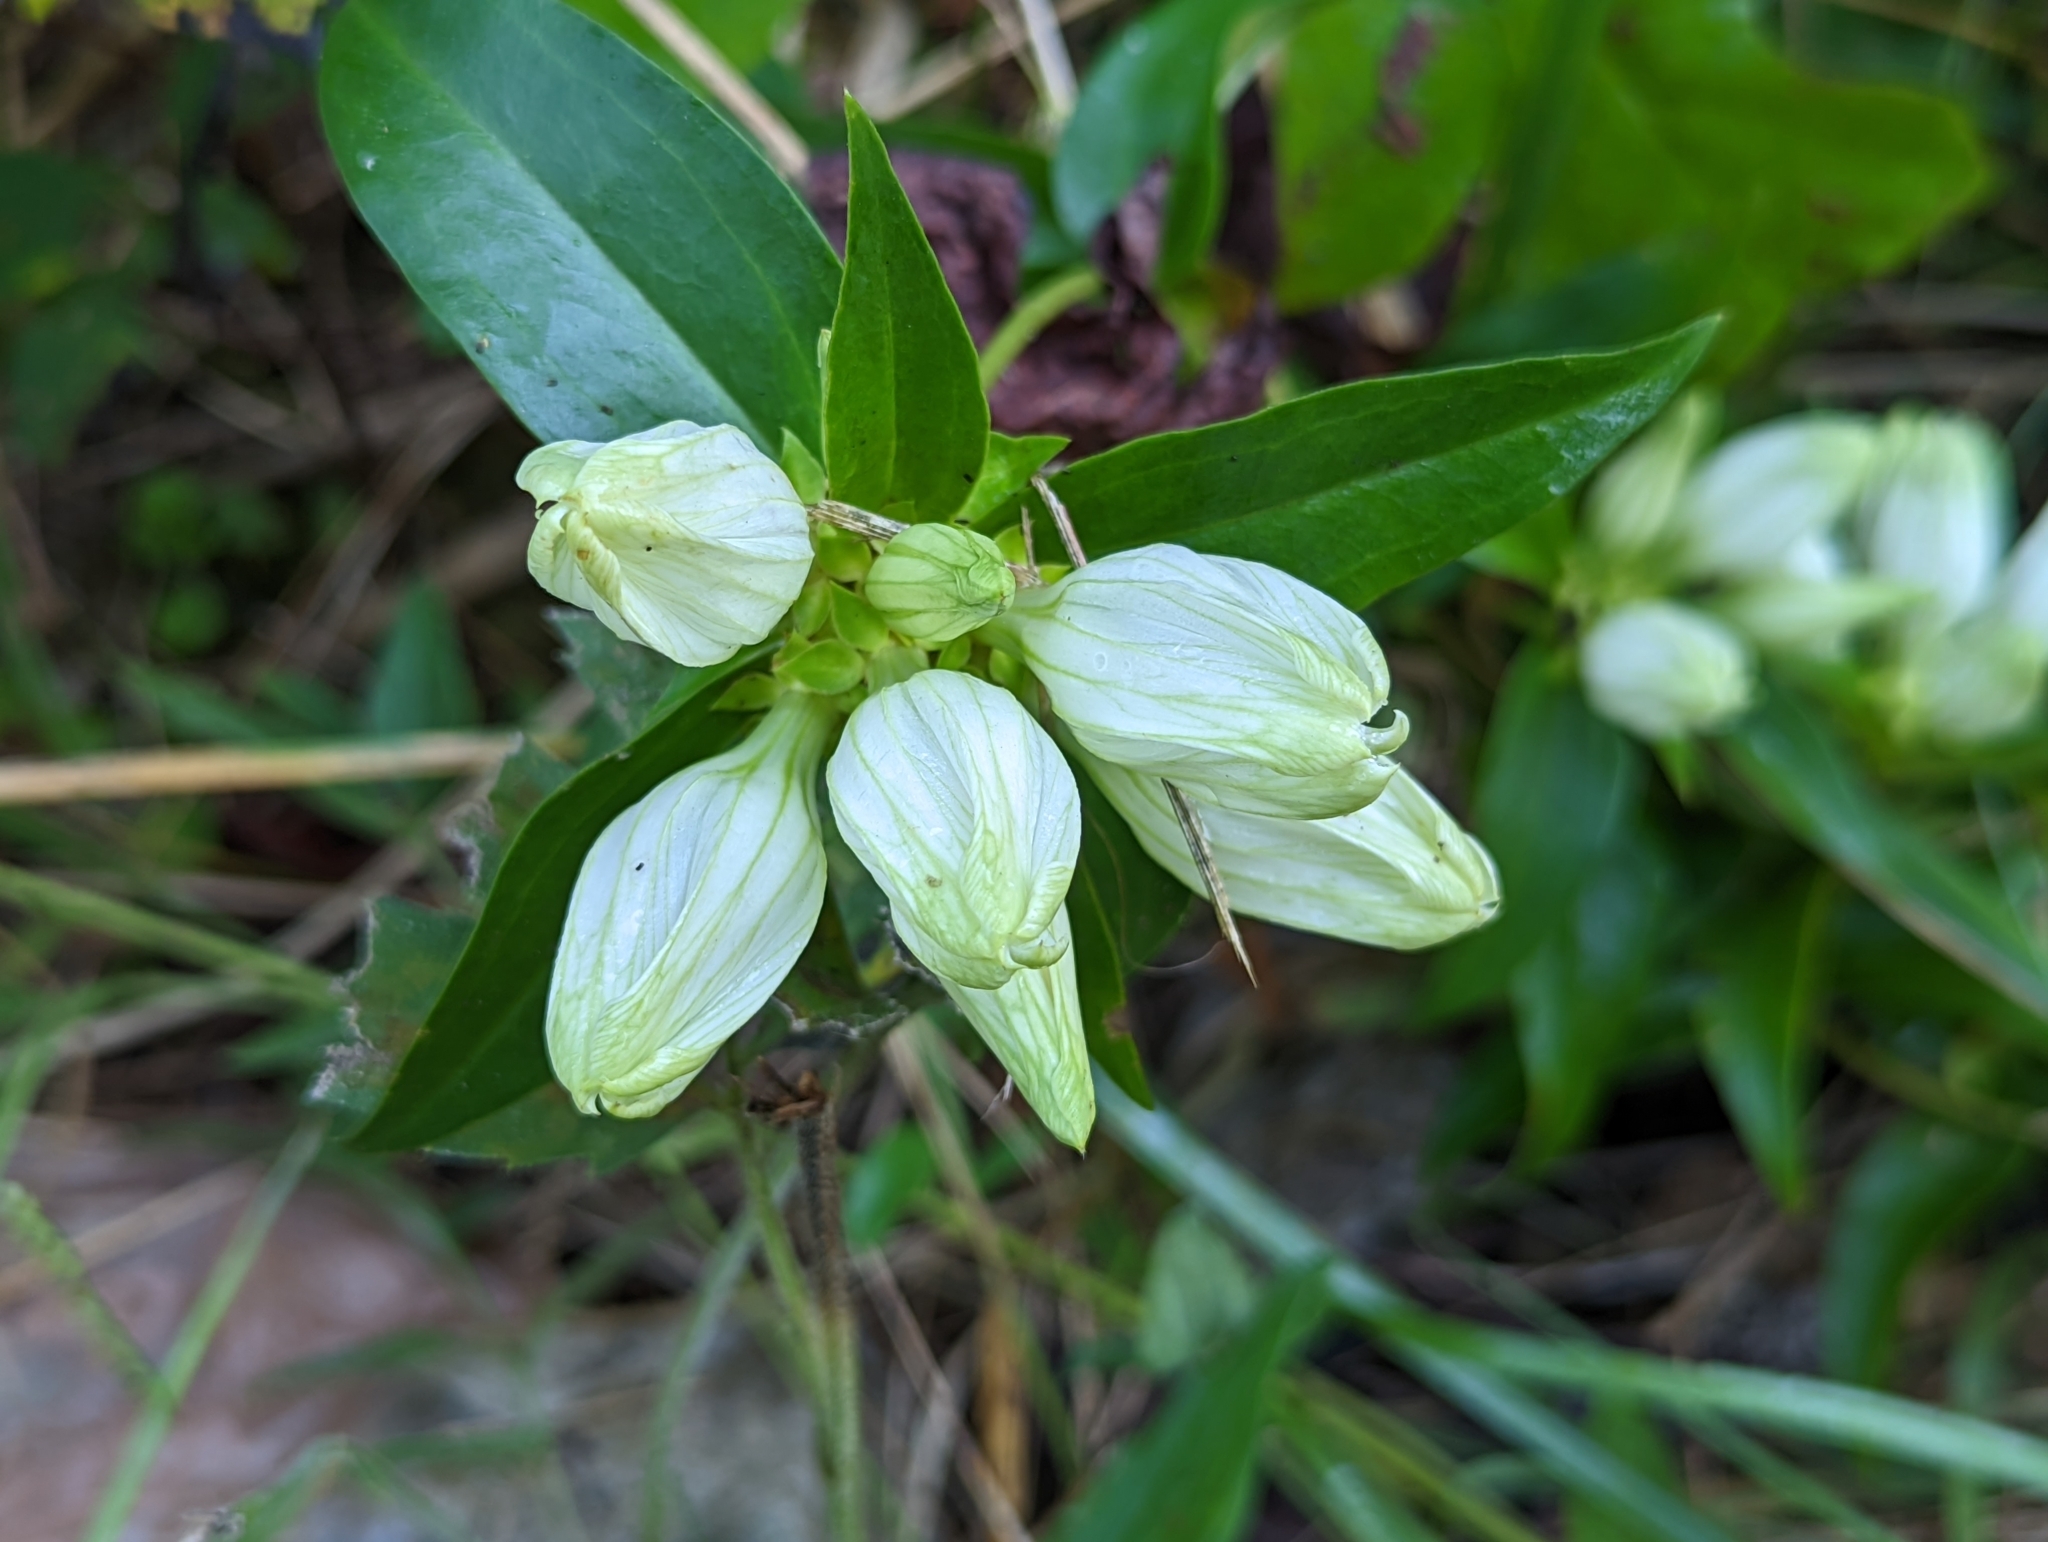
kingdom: Plantae
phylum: Tracheophyta
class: Magnoliopsida
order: Gentianales
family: Gentianaceae
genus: Gentiana
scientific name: Gentiana alba
